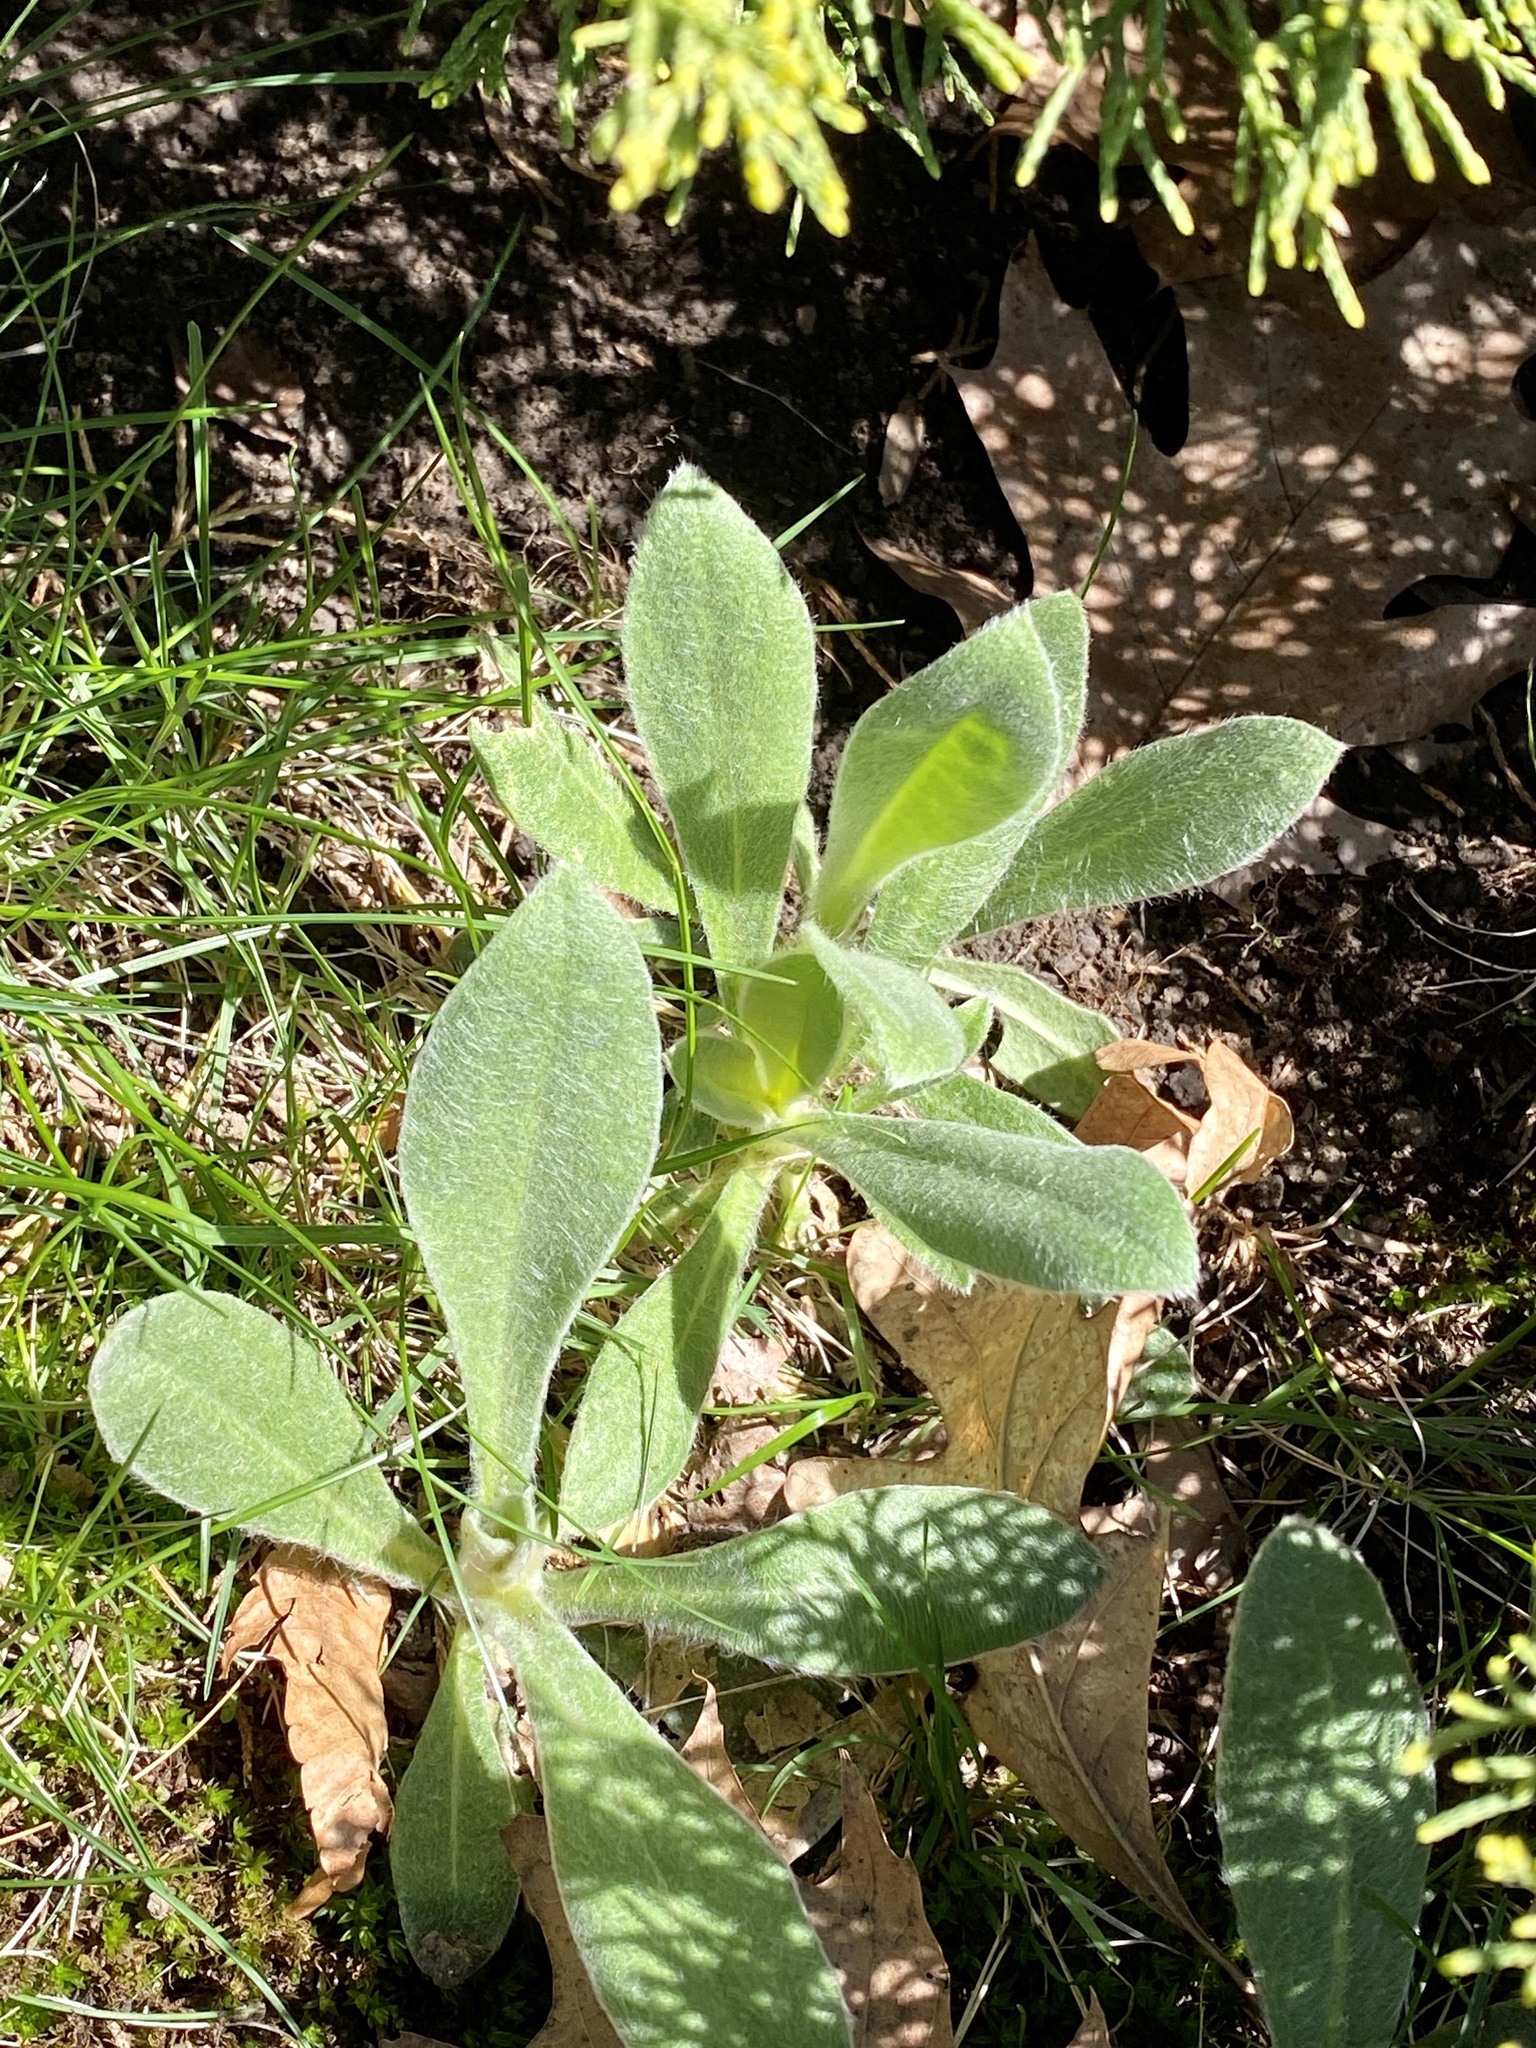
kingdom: Plantae
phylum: Tracheophyta
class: Magnoliopsida
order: Caryophyllales
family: Caryophyllaceae
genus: Silene
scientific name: Silene coronaria
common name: Rose campion
